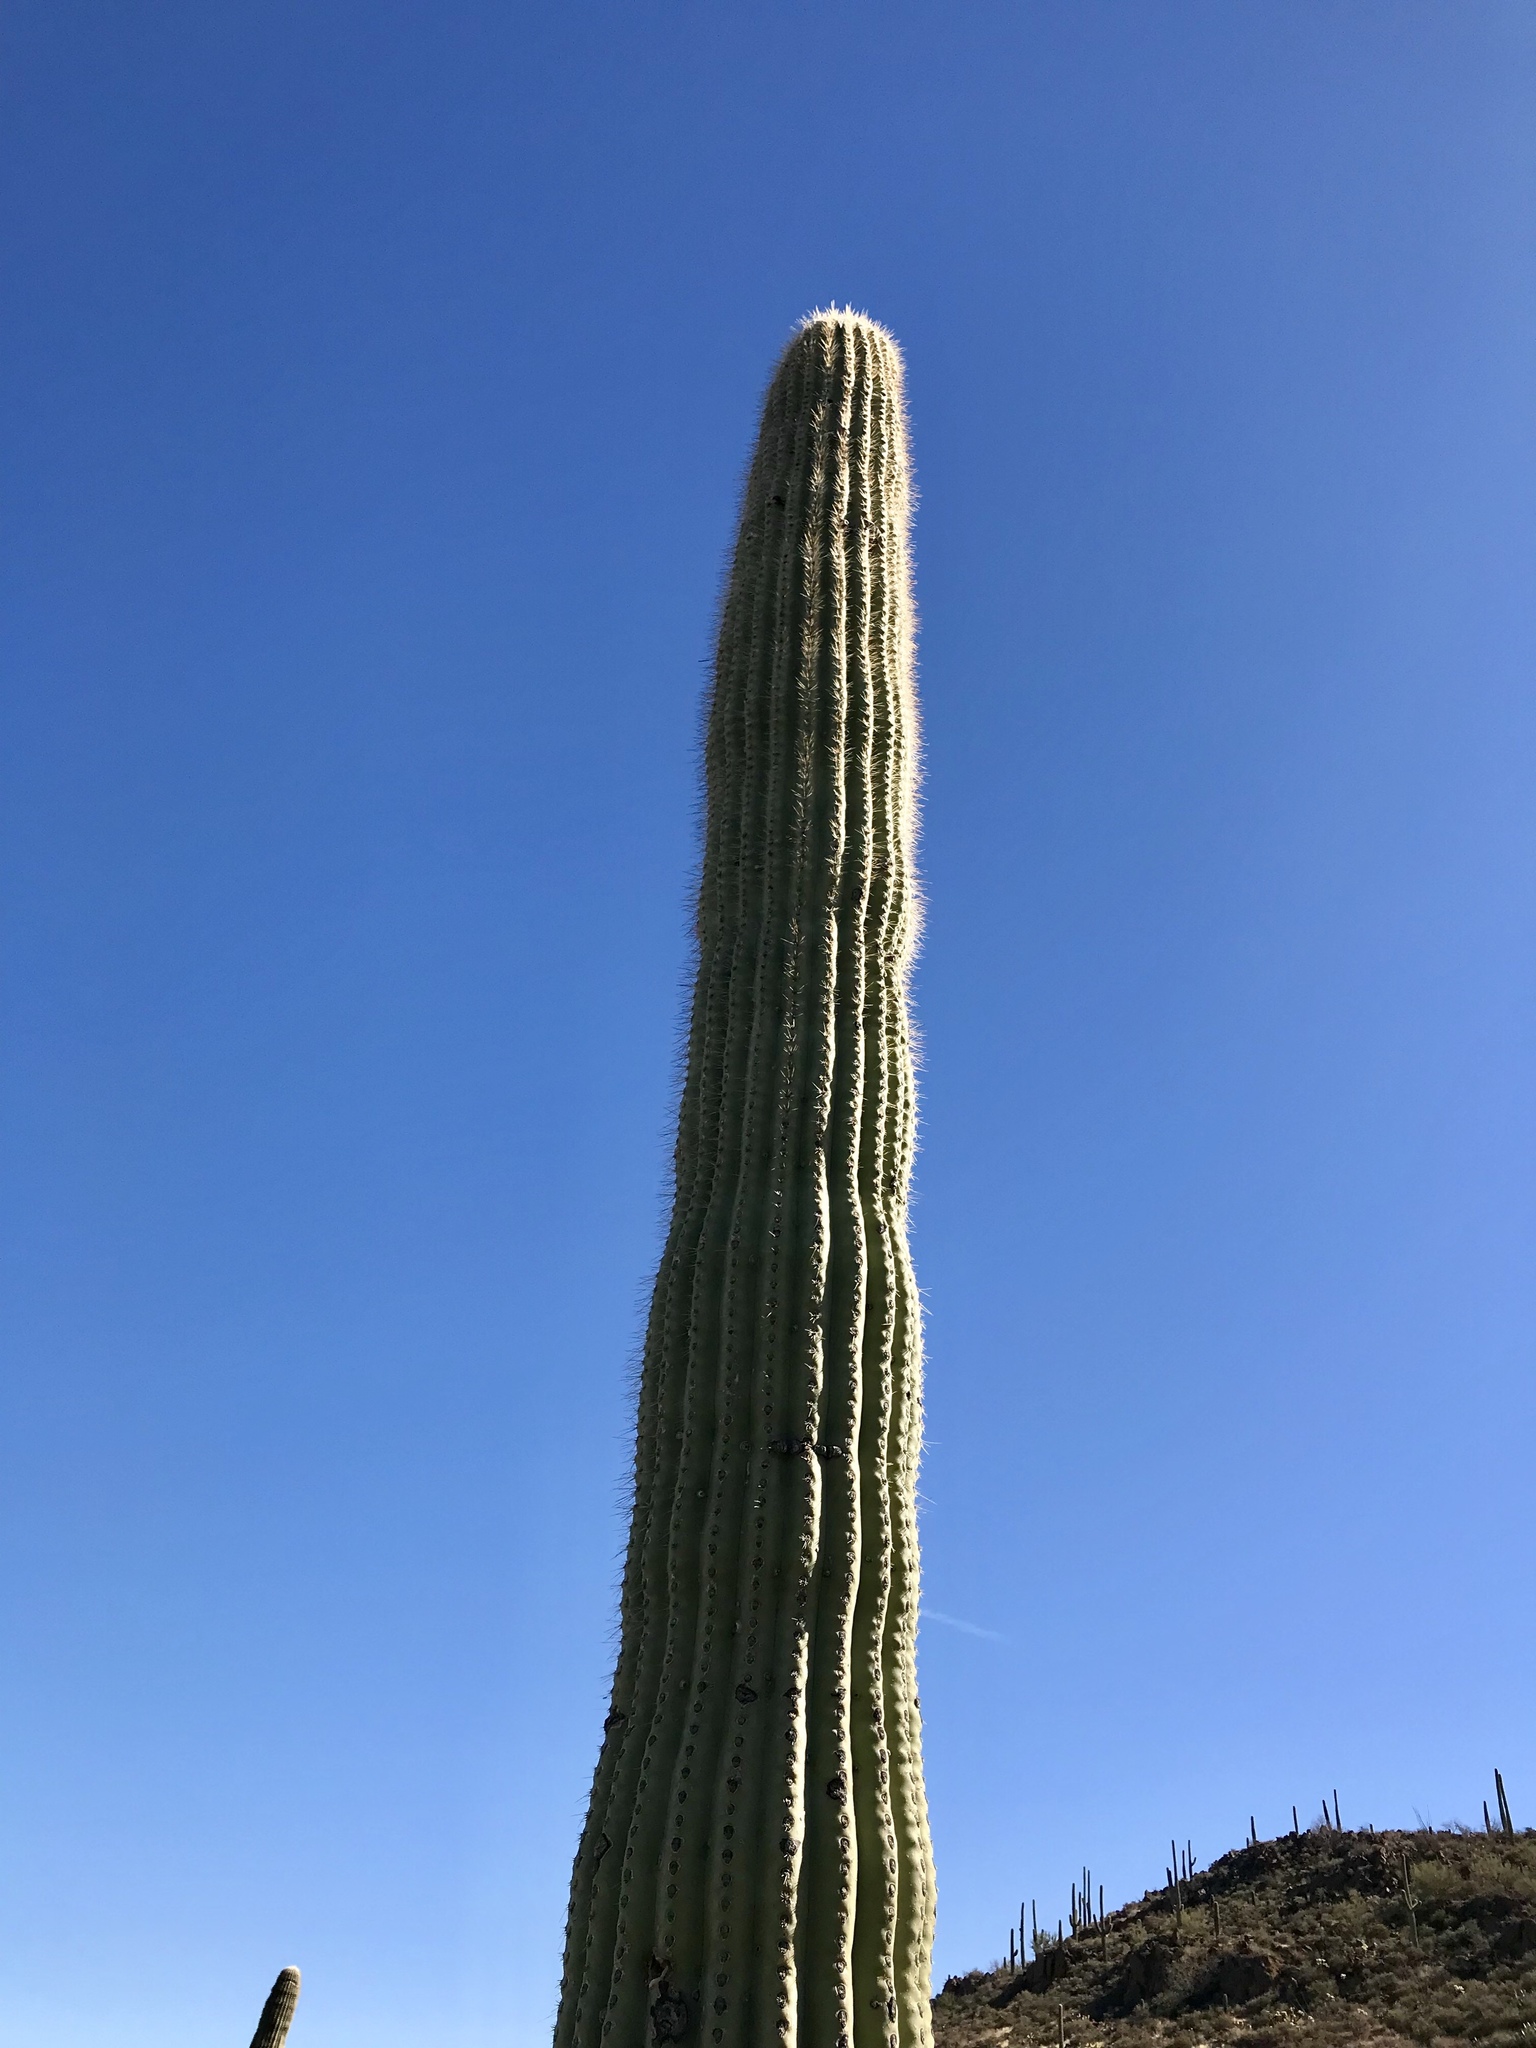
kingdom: Plantae
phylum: Tracheophyta
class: Magnoliopsida
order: Caryophyllales
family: Cactaceae
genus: Carnegiea
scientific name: Carnegiea gigantea
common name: Saguaro
